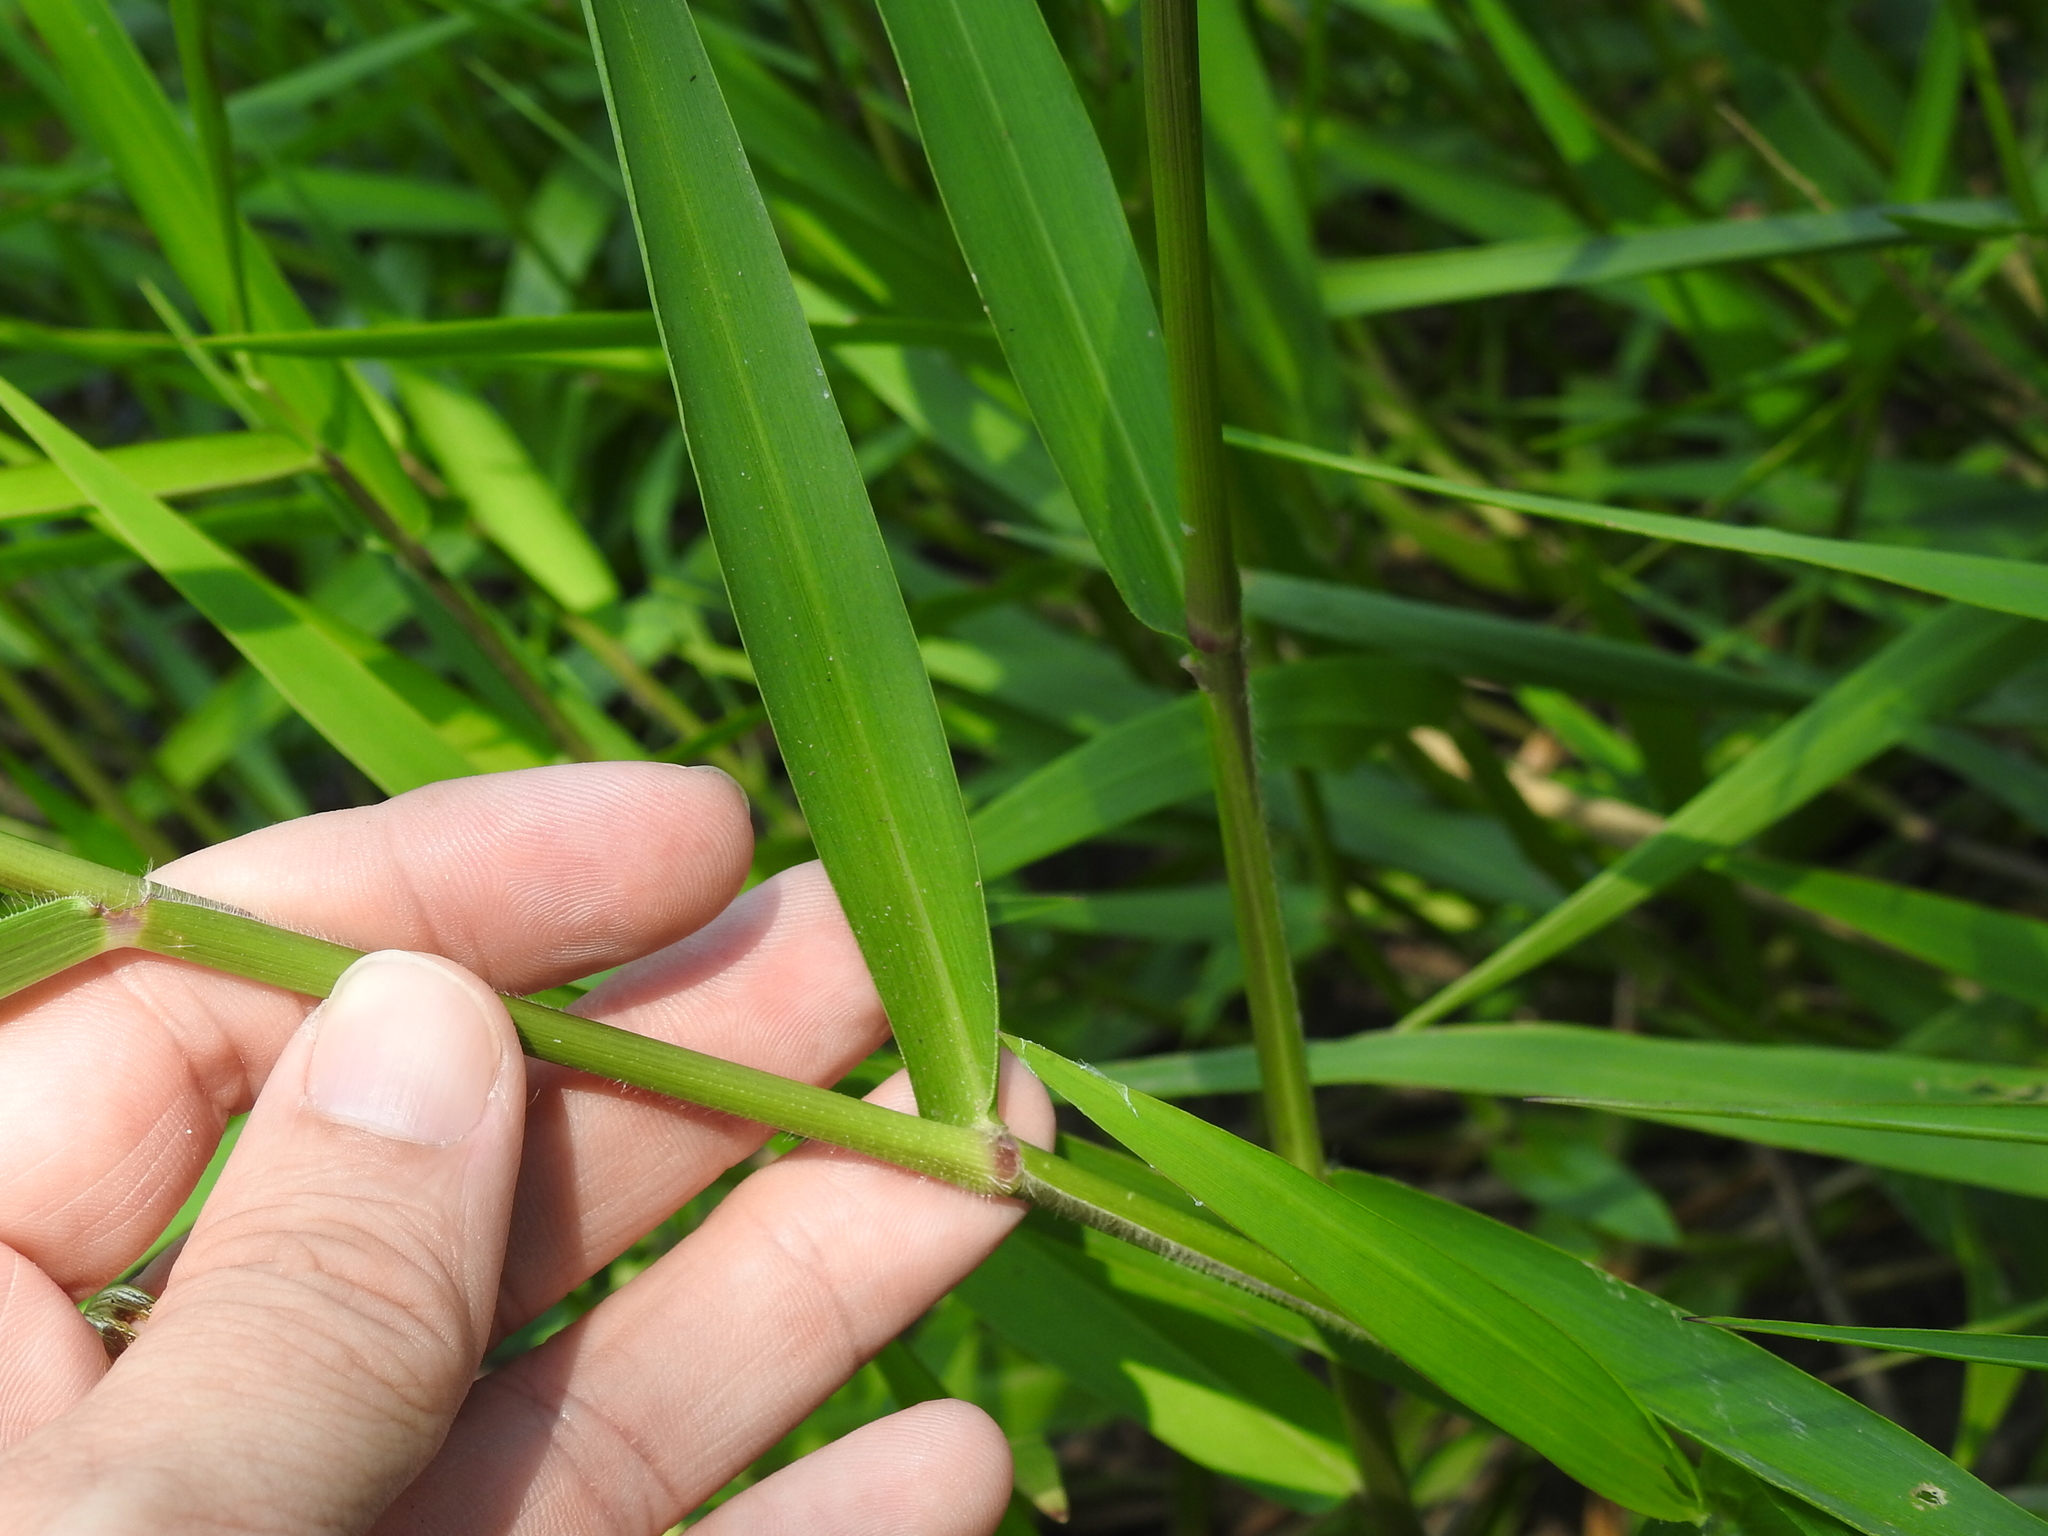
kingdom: Plantae
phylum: Tracheophyta
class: Liliopsida
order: Poales
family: Poaceae
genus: Sacciolepis
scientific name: Sacciolepis striata
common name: American cupscale
